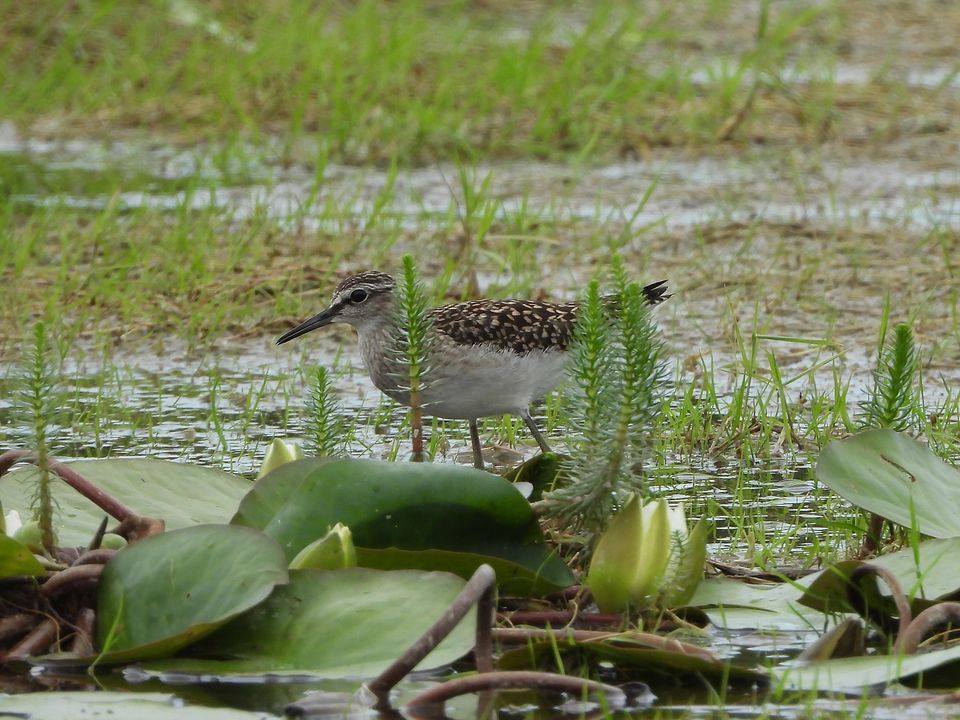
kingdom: Animalia
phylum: Chordata
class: Aves
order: Charadriiformes
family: Scolopacidae
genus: Tringa
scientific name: Tringa glareola
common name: Wood sandpiper
